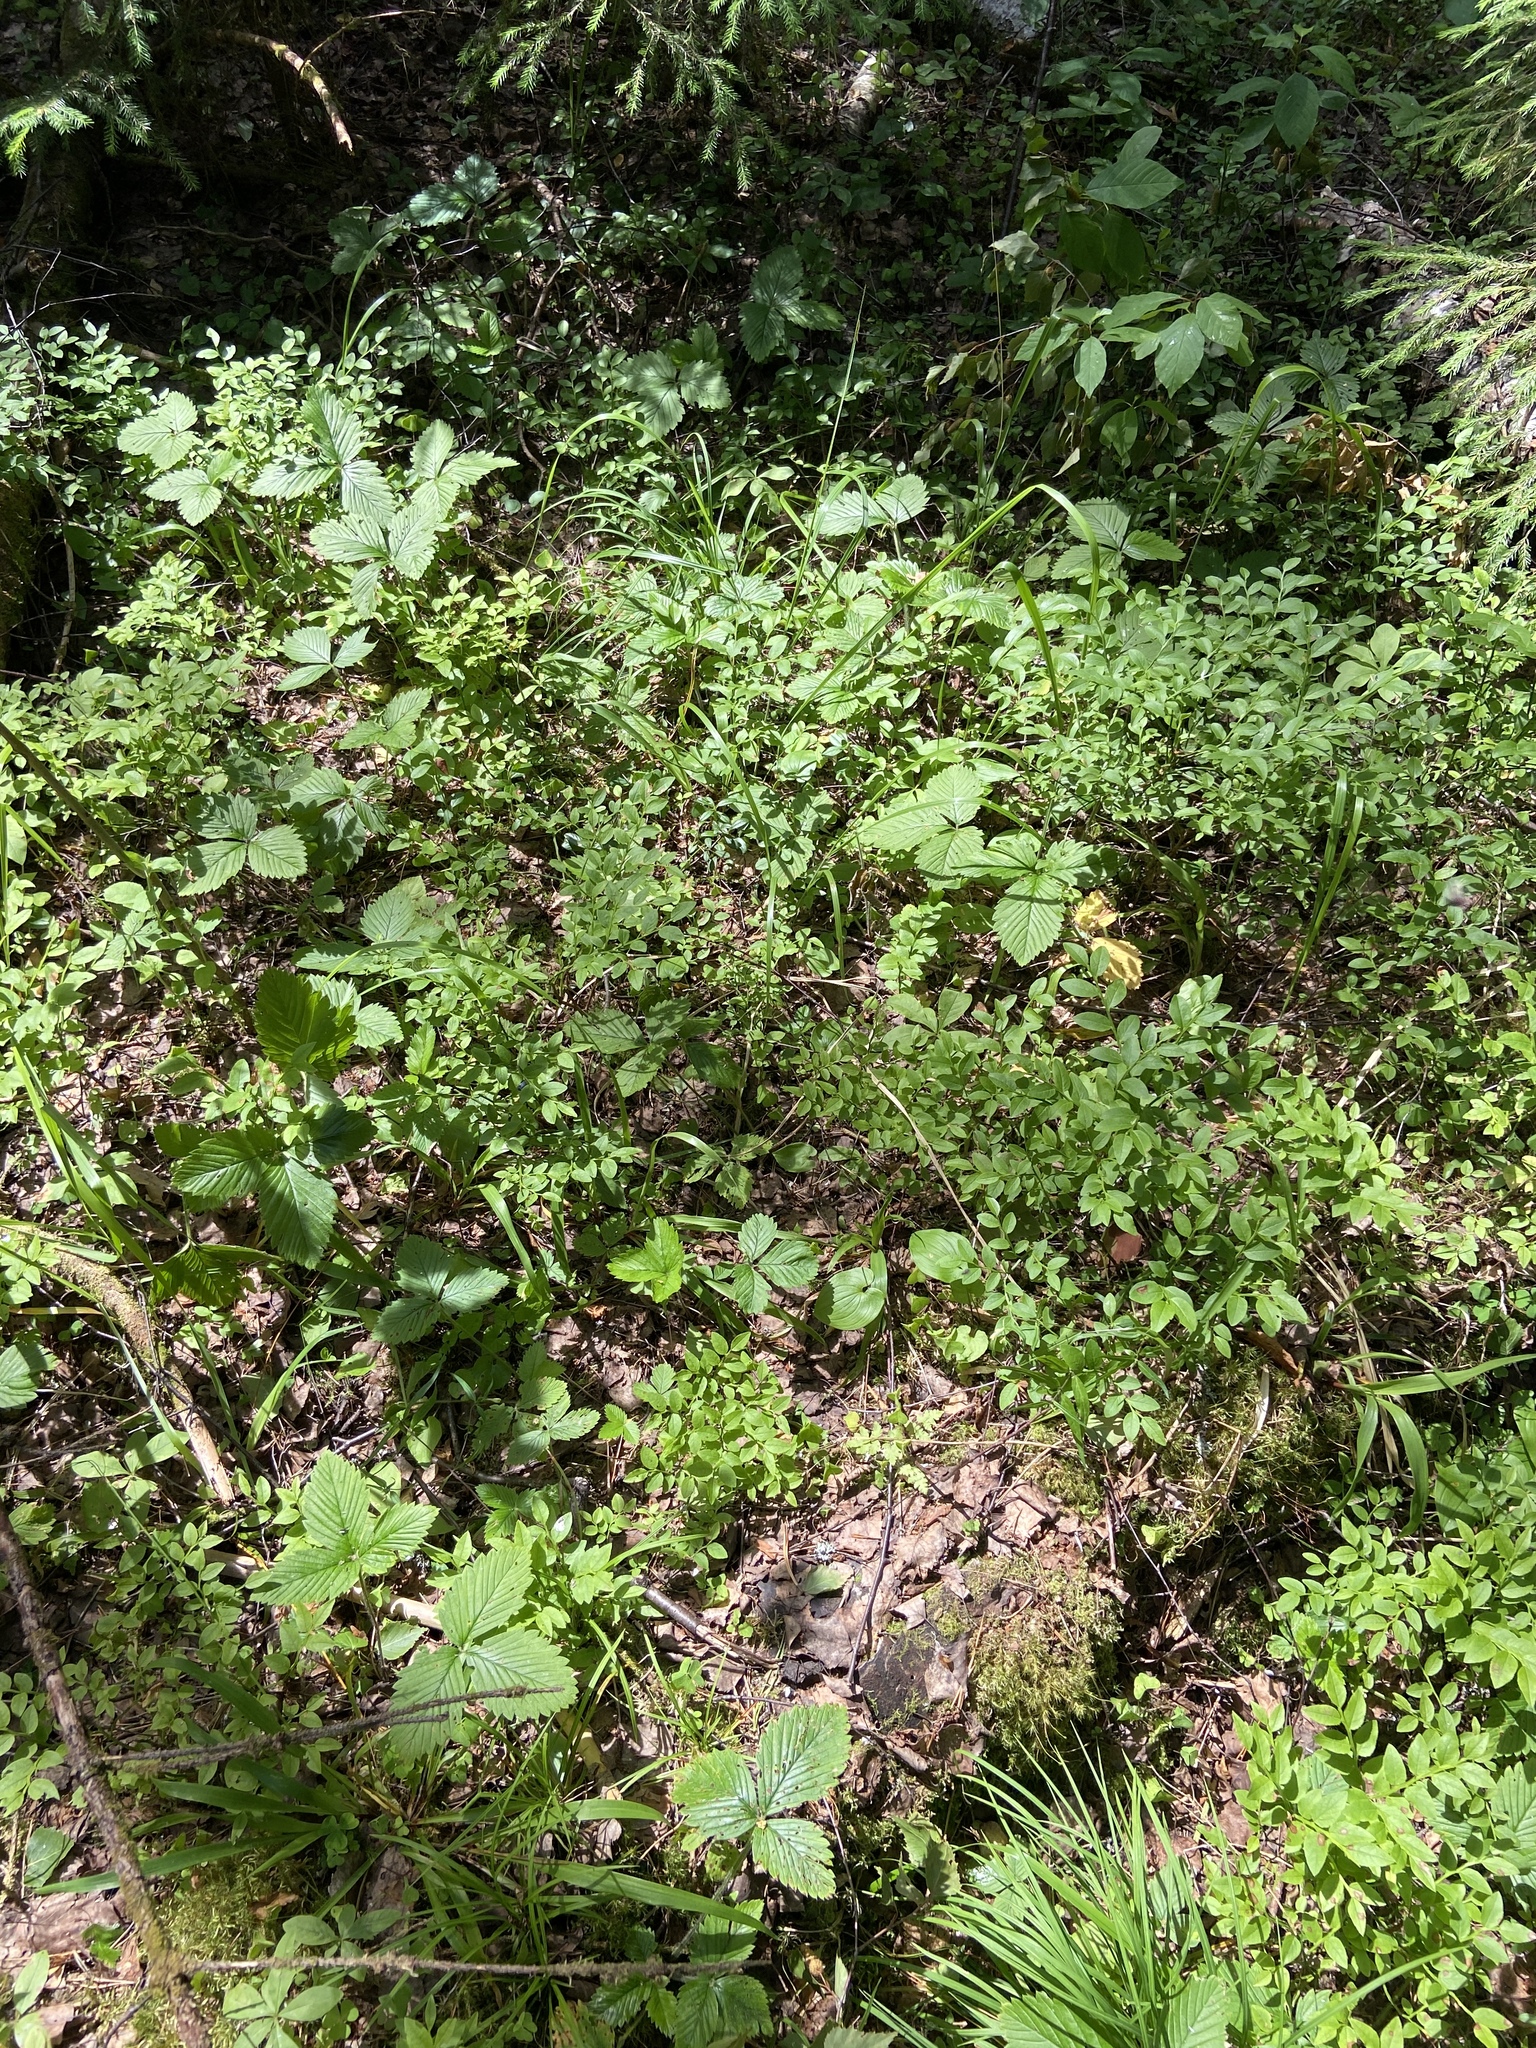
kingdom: Plantae
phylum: Tracheophyta
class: Magnoliopsida
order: Ericales
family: Ericaceae
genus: Vaccinium
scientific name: Vaccinium myrtillus
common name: Bilberry
